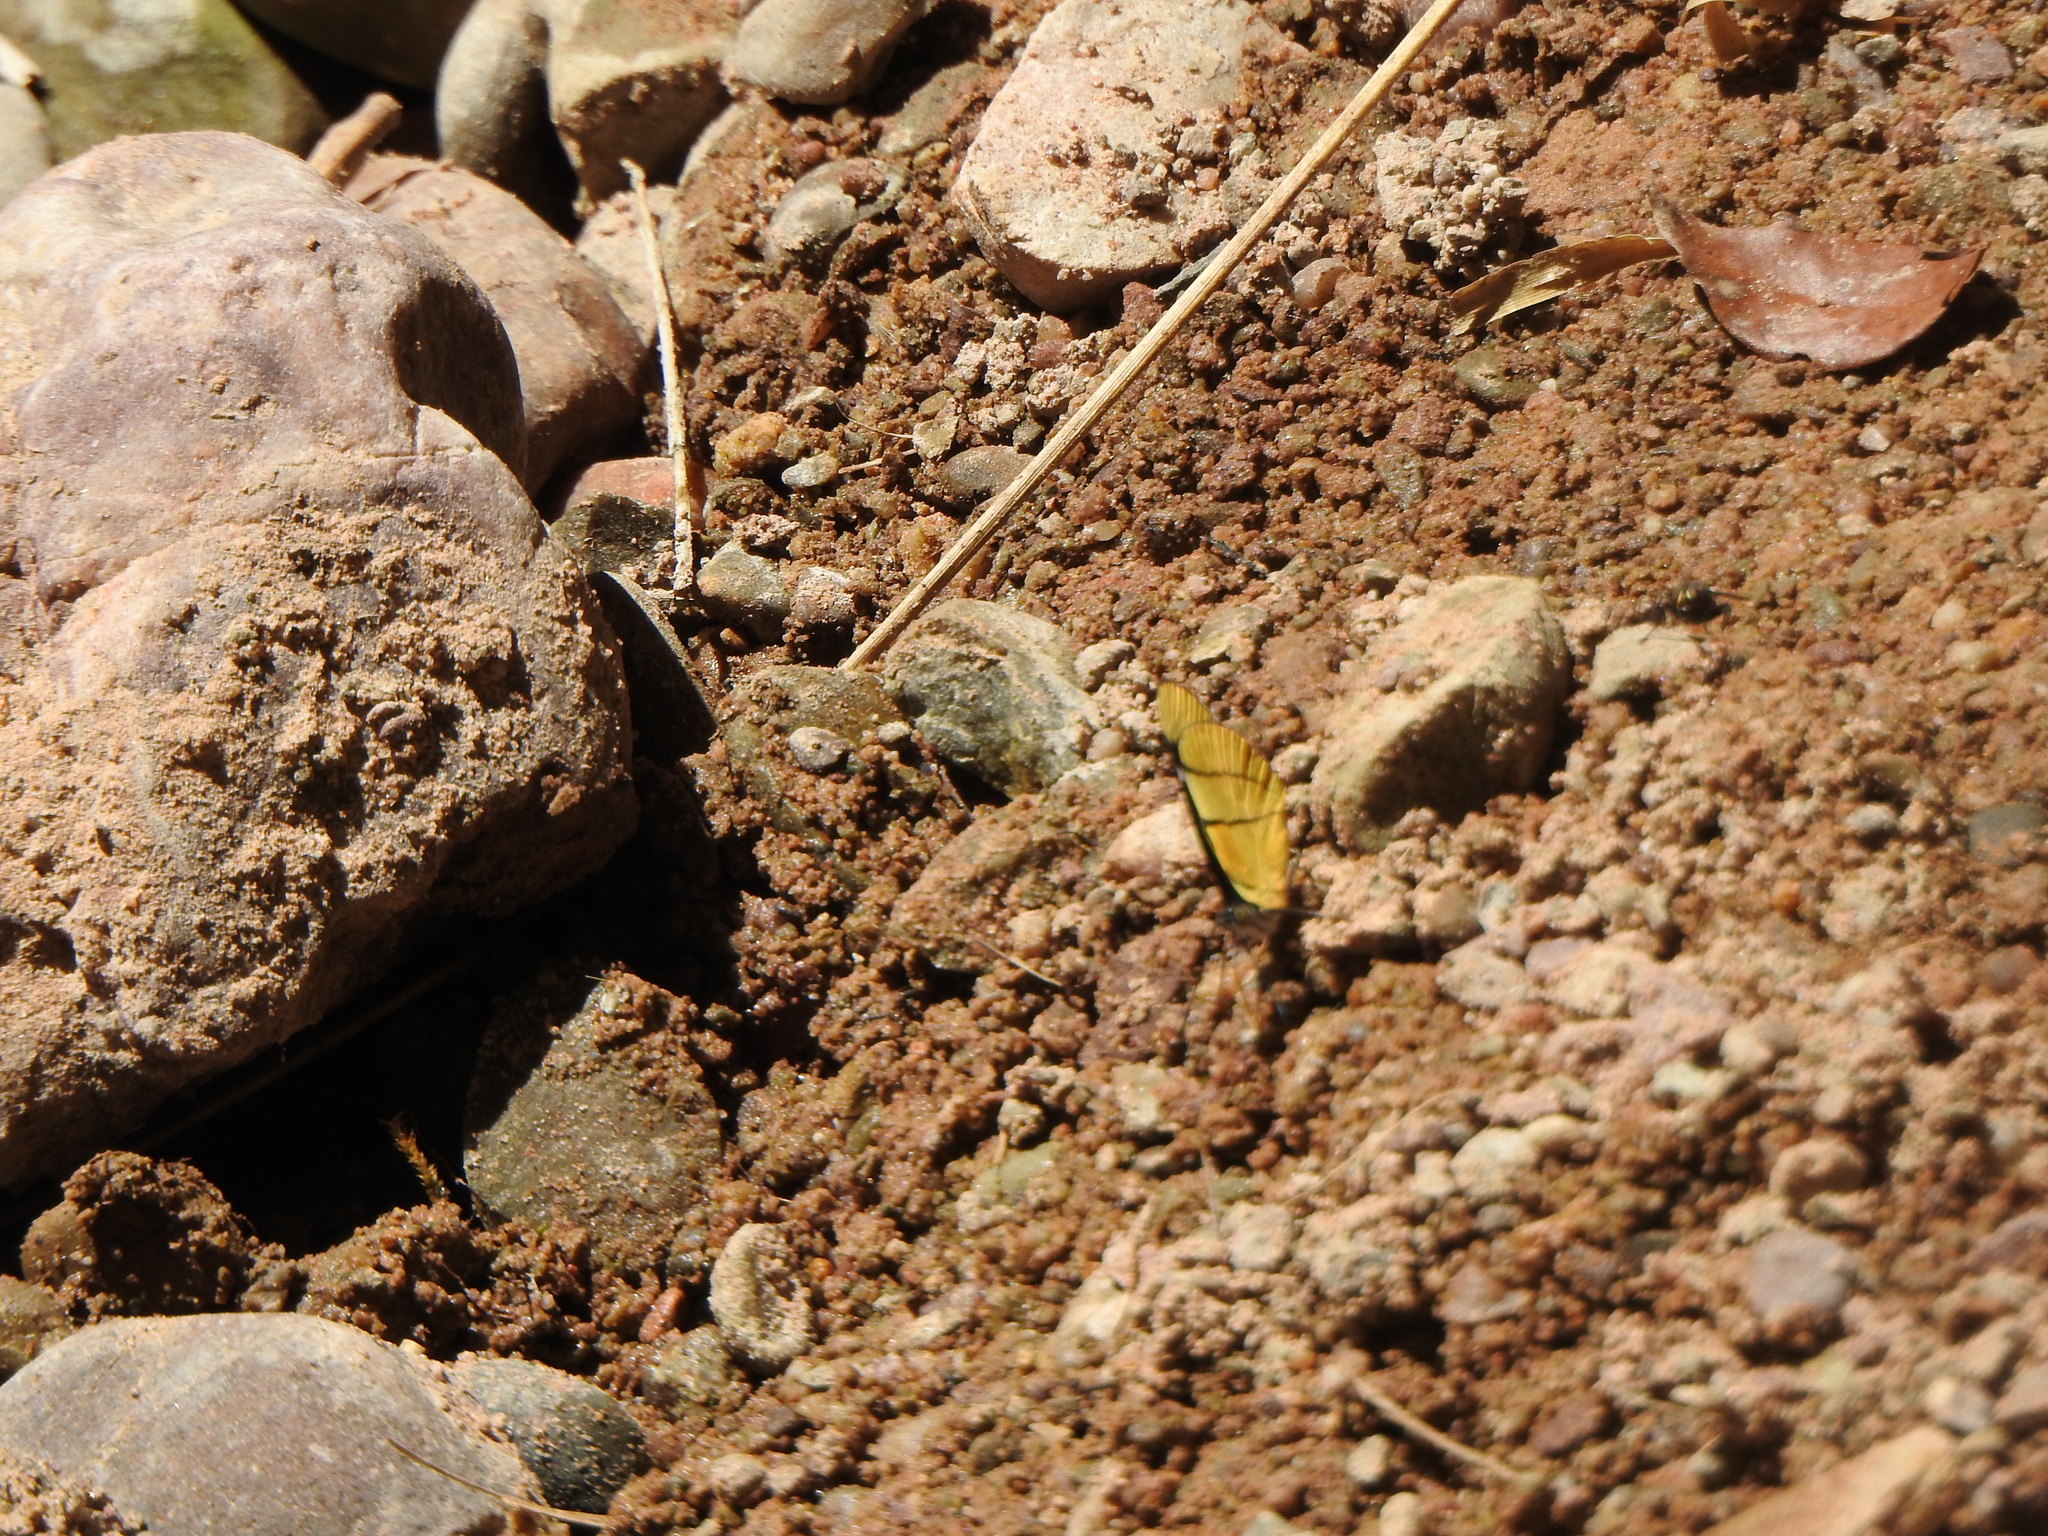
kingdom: Animalia
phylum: Arthropoda
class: Insecta
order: Lepidoptera
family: Nymphalidae
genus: Perisama
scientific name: Perisama oppelii
